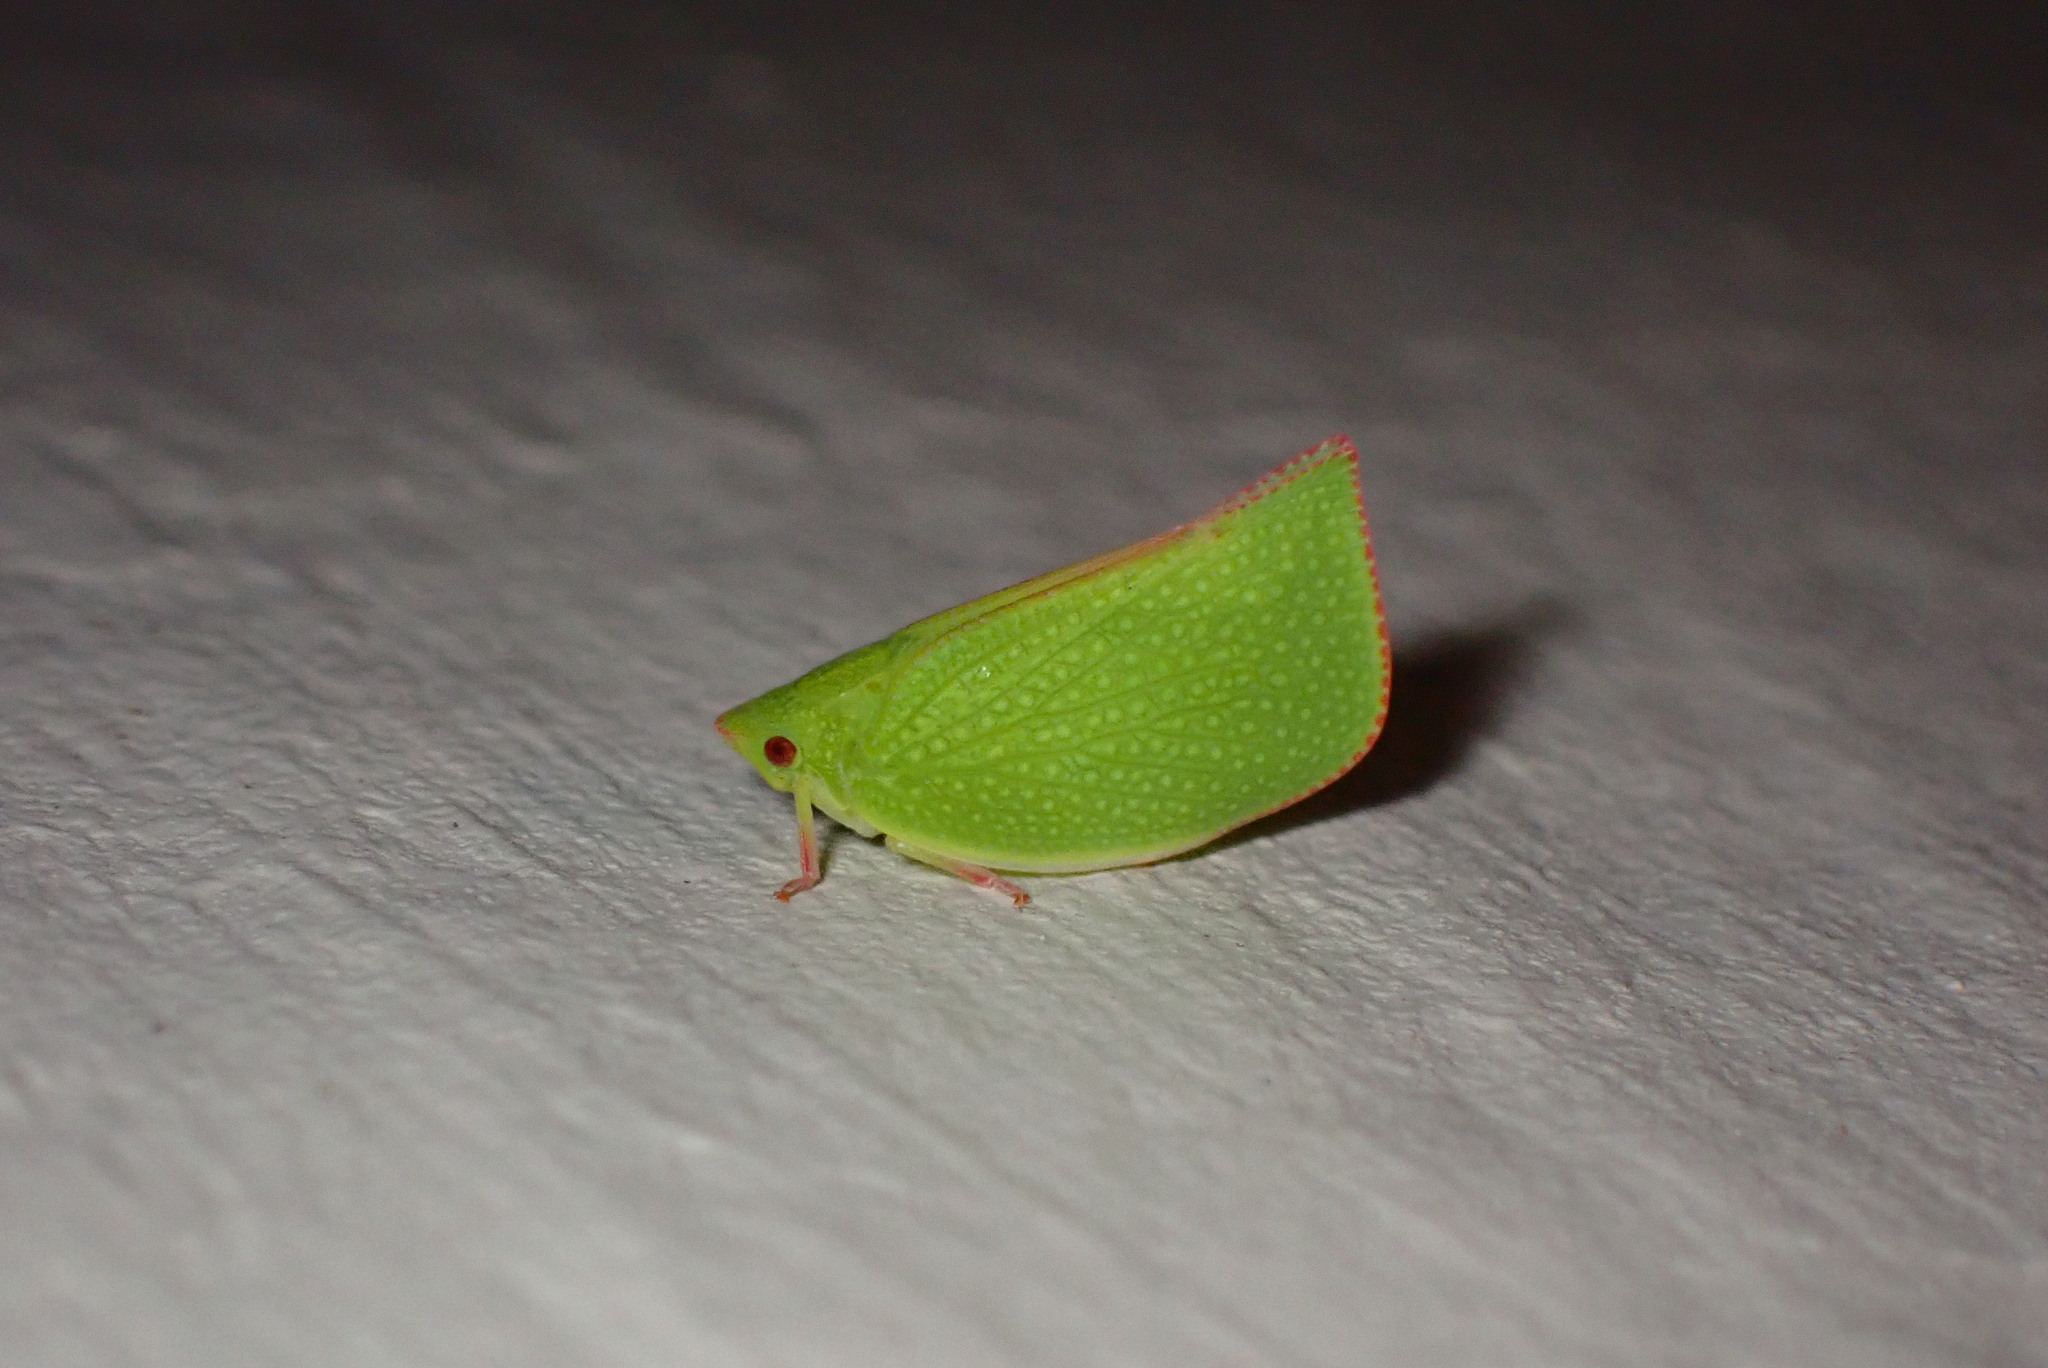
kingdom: Animalia
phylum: Arthropoda
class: Insecta
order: Hemiptera
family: Flatidae
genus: Siphanta
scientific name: Siphanta acuta
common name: Torpedo bug
